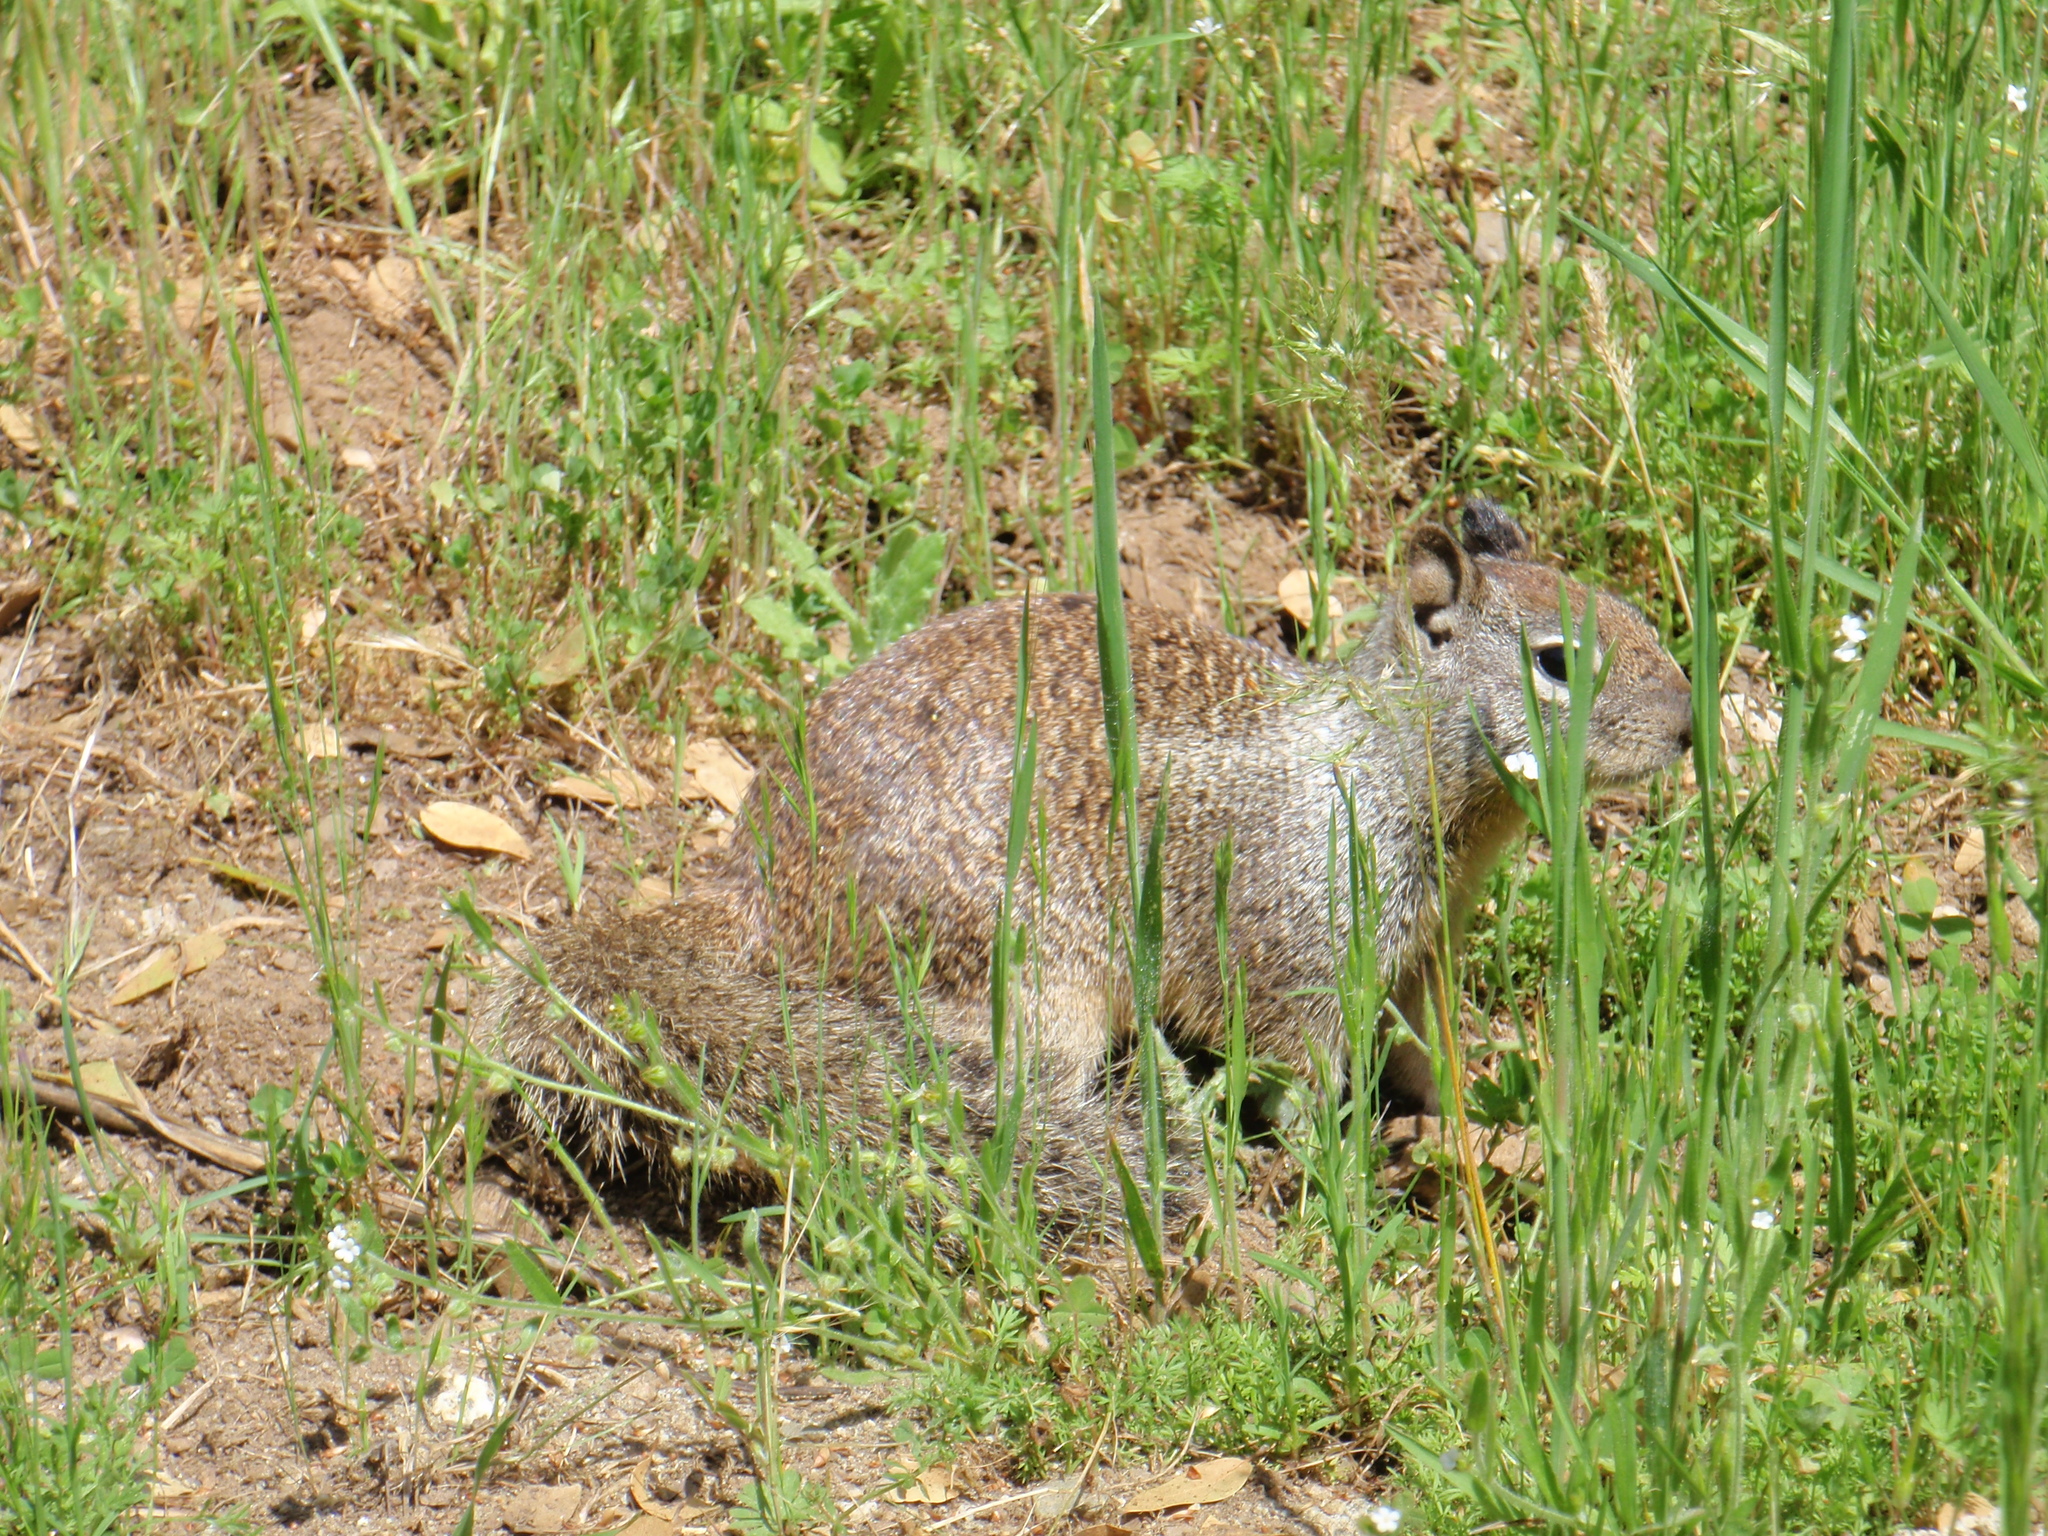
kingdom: Animalia
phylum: Chordata
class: Mammalia
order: Rodentia
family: Sciuridae
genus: Otospermophilus
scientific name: Otospermophilus beecheyi
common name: California ground squirrel
